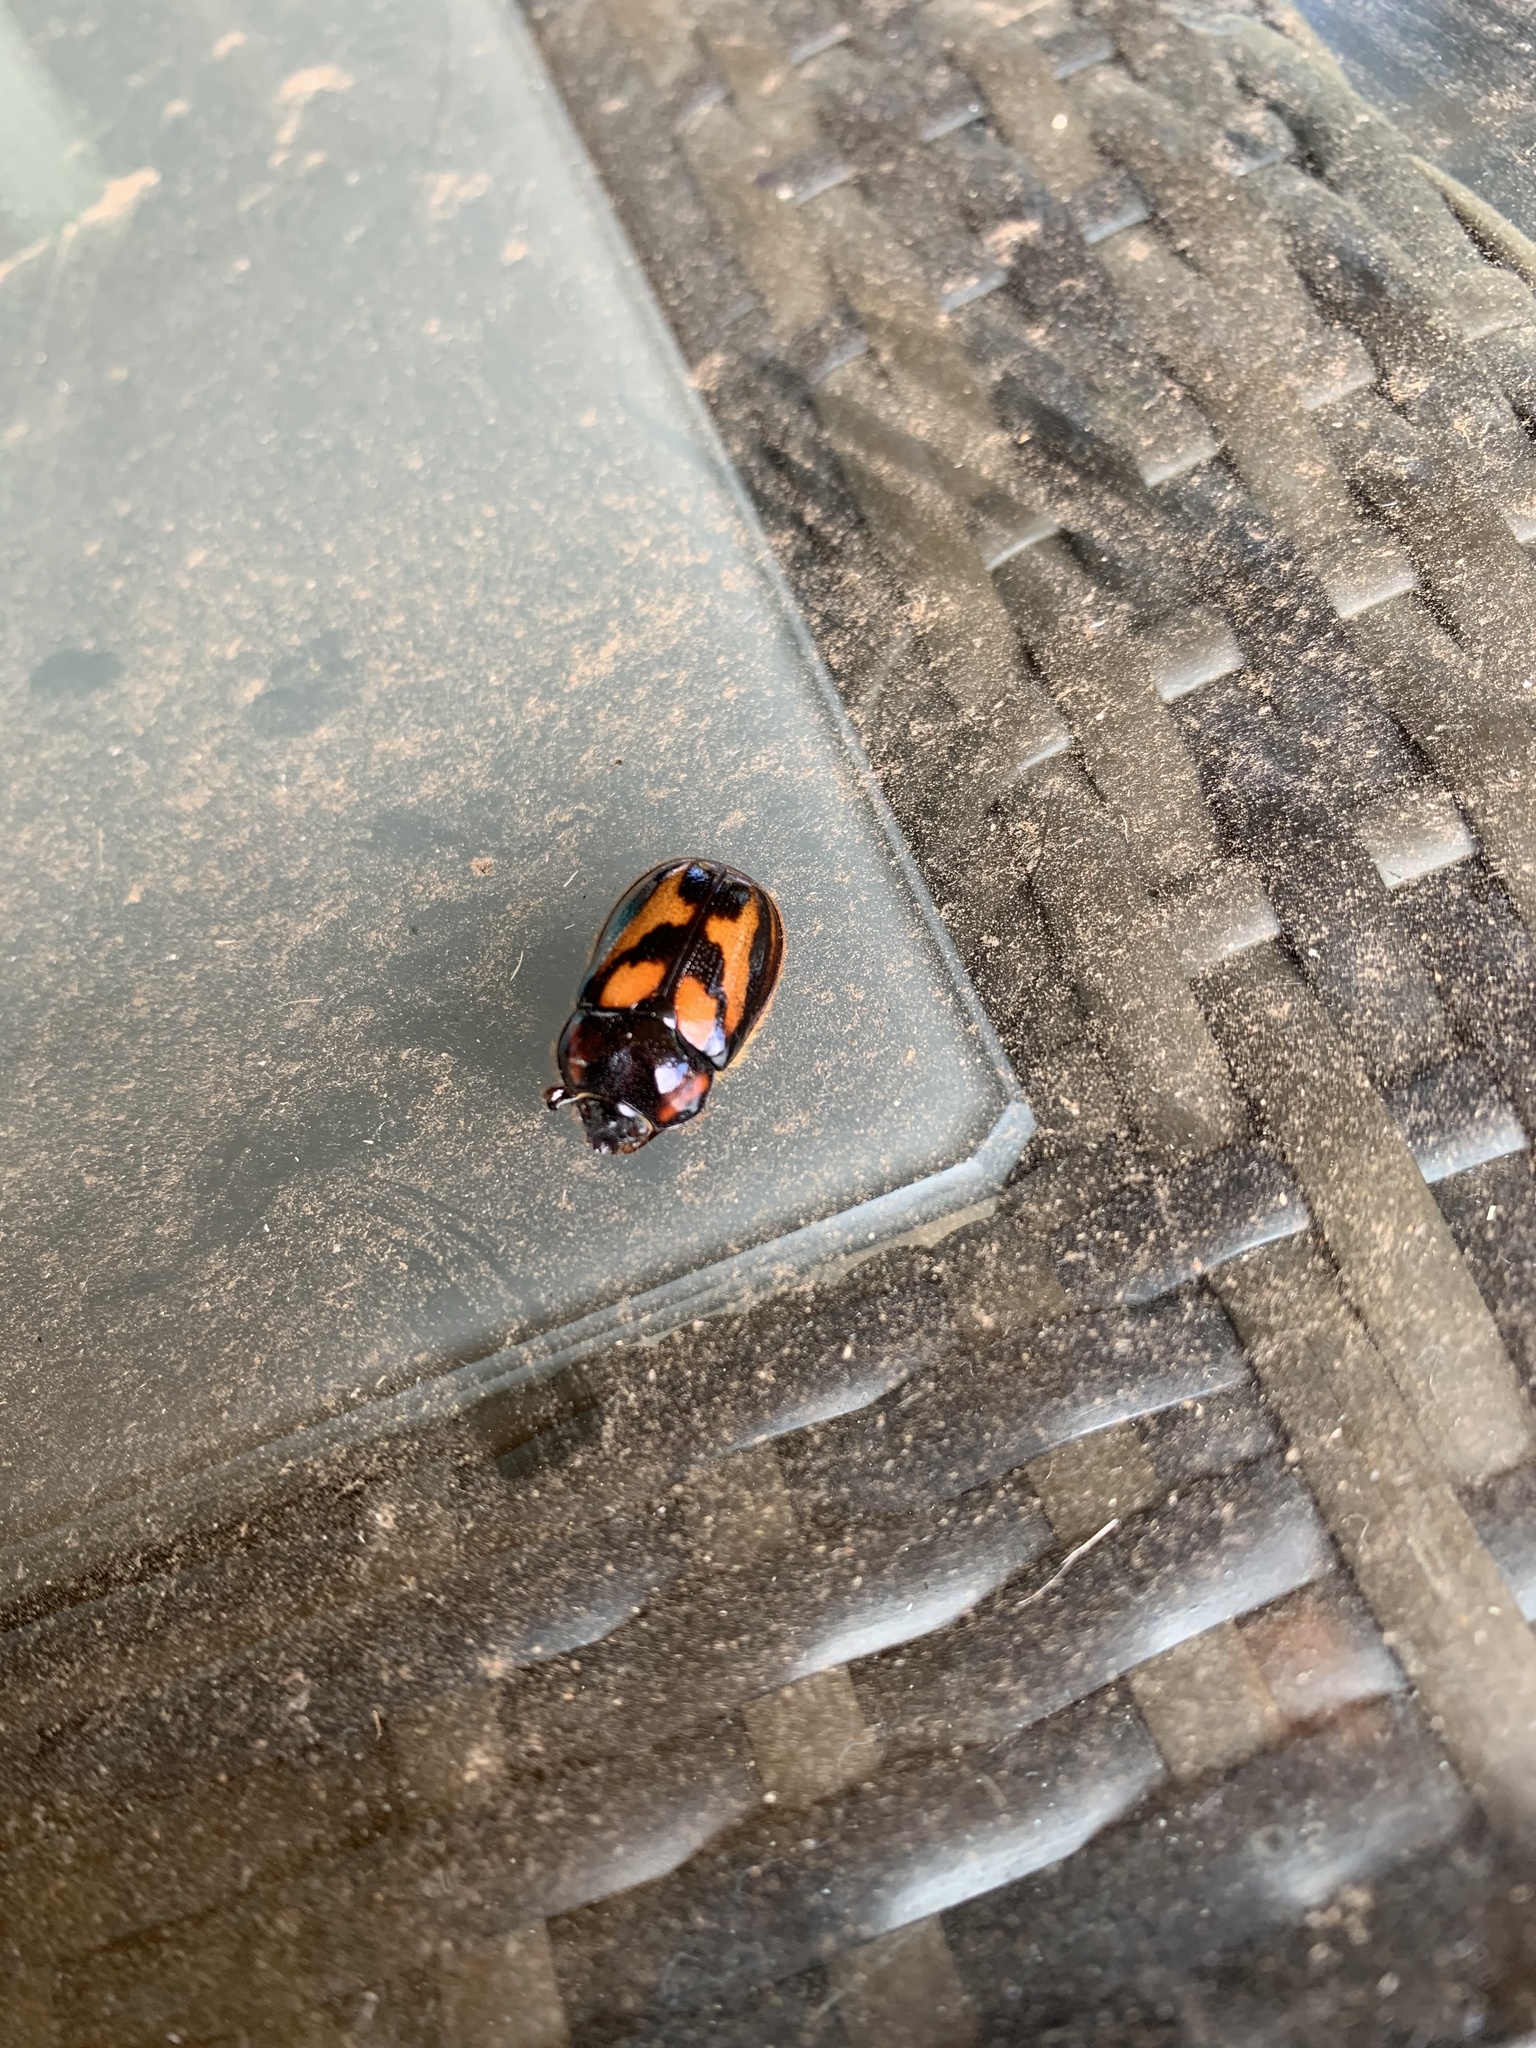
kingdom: Animalia
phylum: Arthropoda
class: Insecta
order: Coleoptera
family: Scarabaeidae
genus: Oryctomorphus
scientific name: Oryctomorphus bimaculatus
